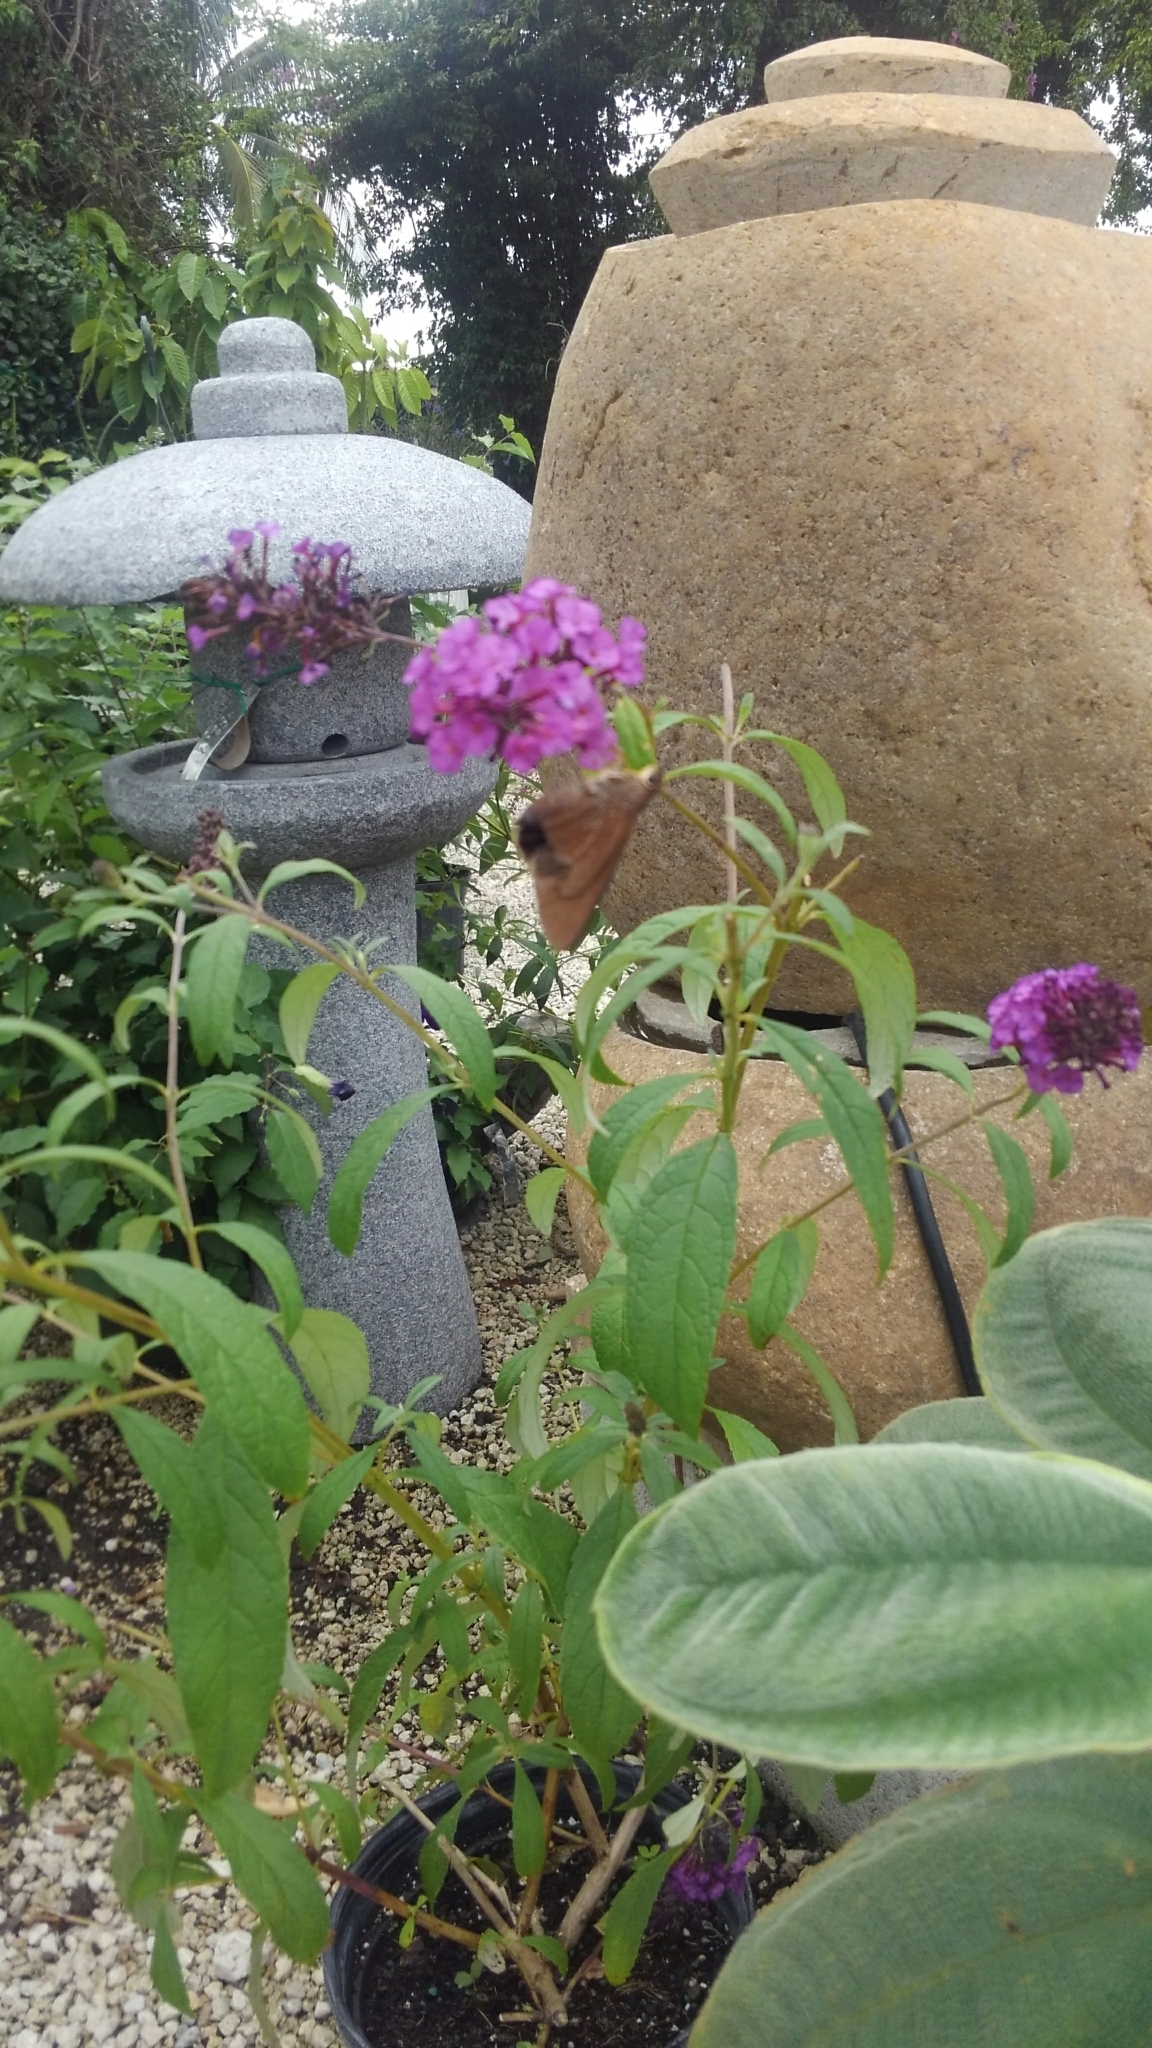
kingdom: Animalia
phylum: Arthropoda
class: Insecta
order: Lepidoptera
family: Hesperiidae
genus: Asbolis
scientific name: Asbolis capucinus
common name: Monk skipper
